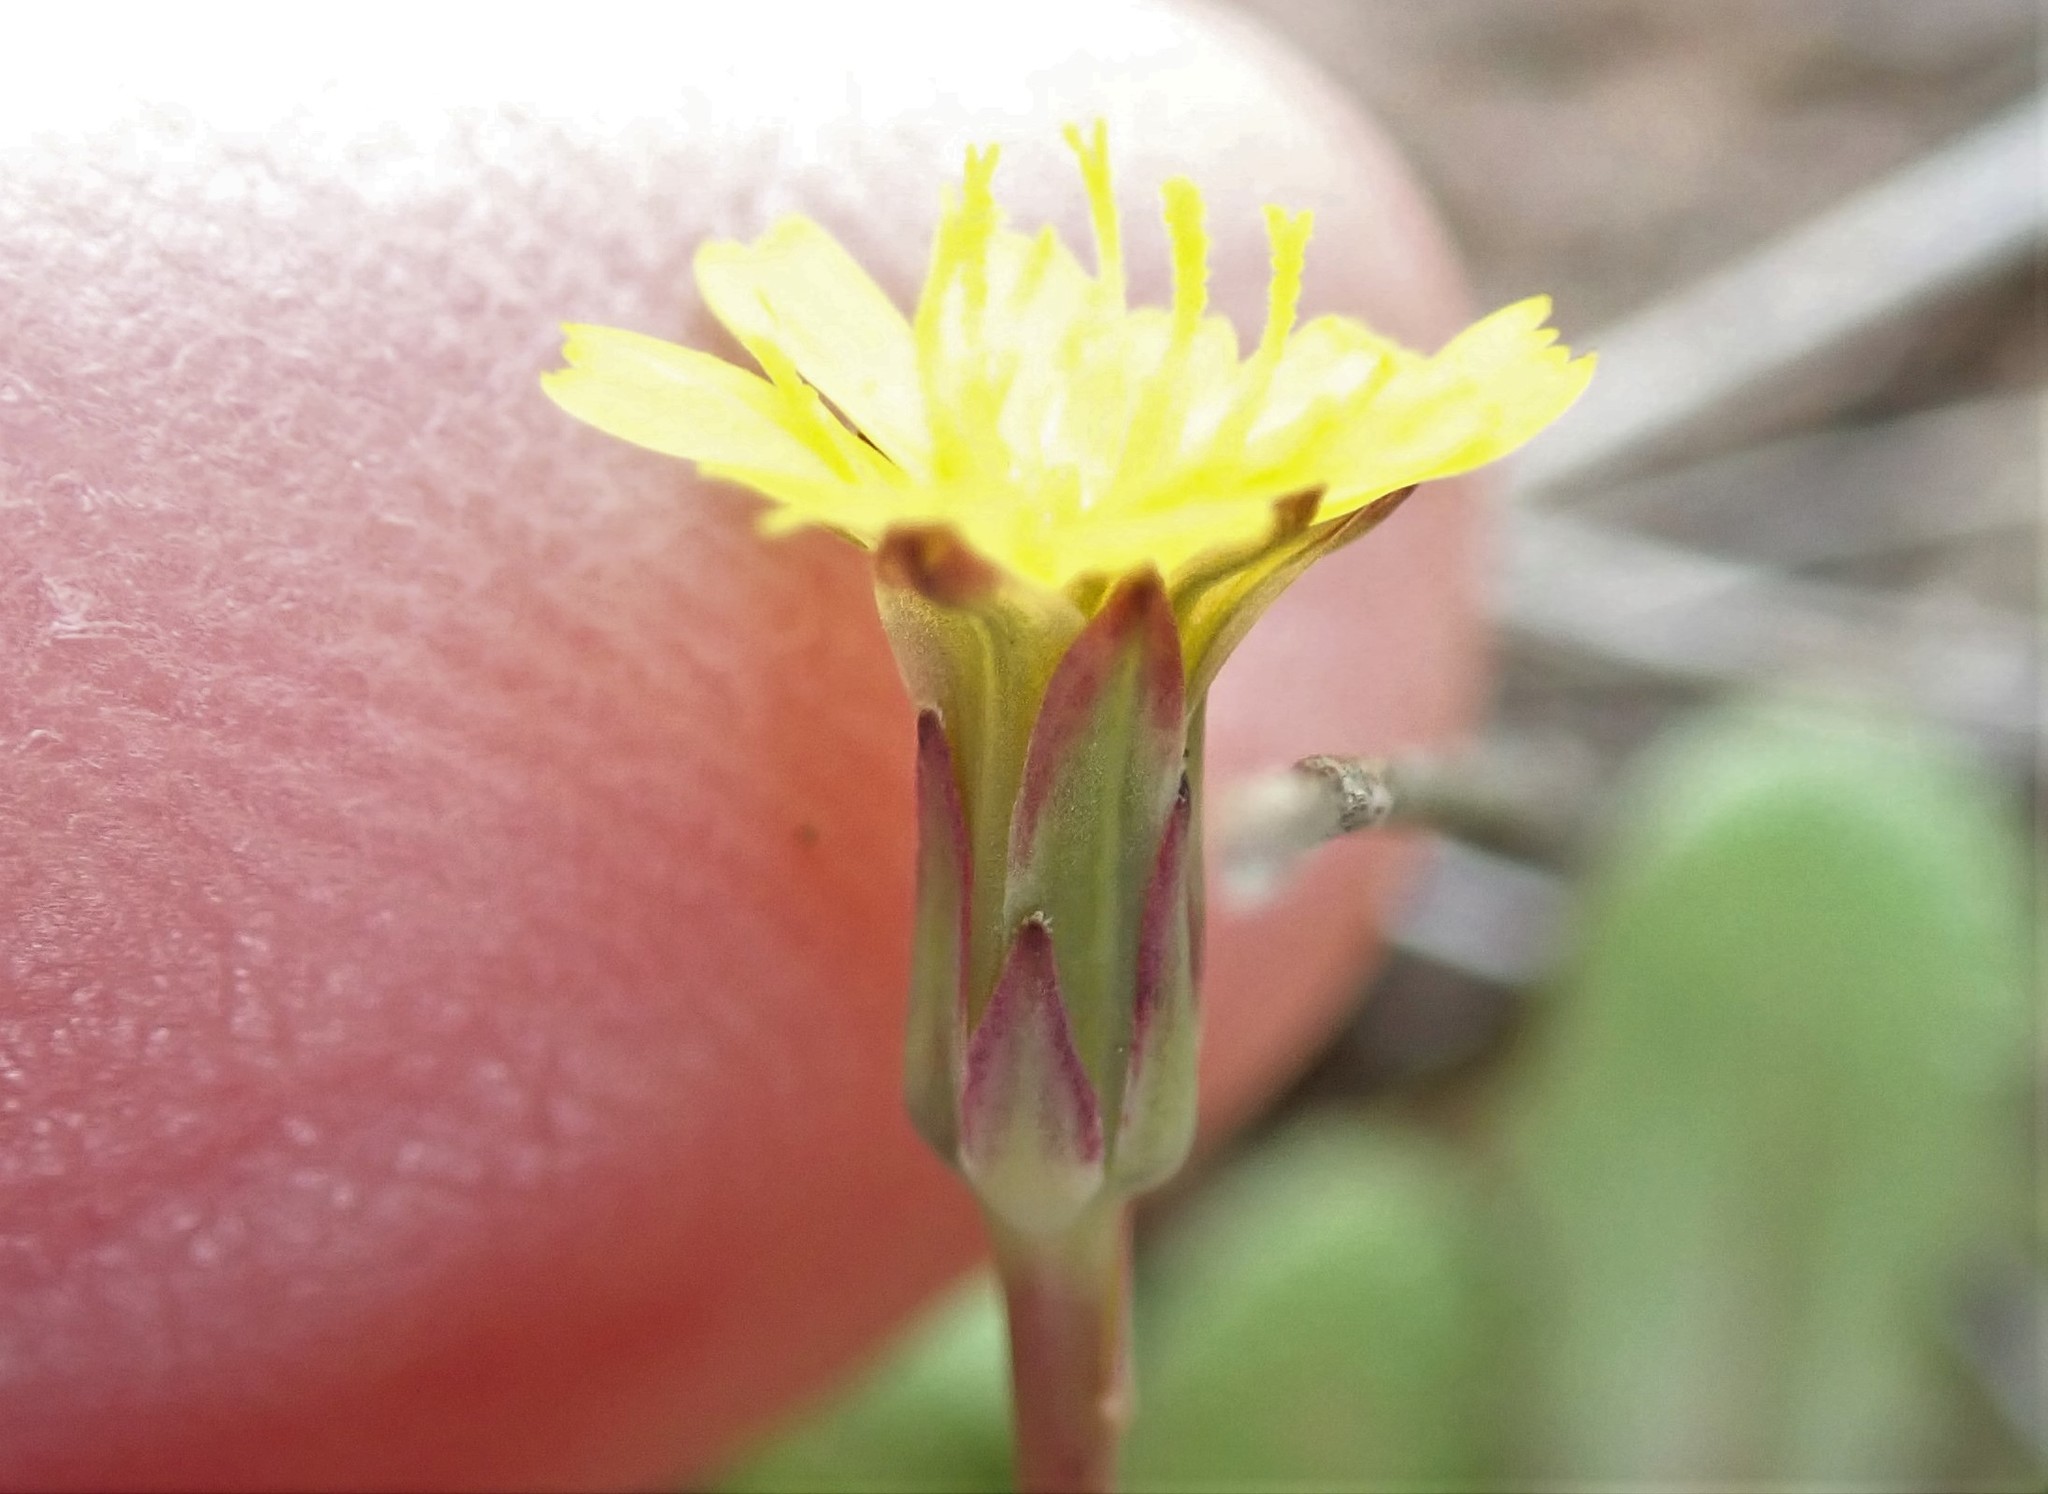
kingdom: Plantae
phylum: Tracheophyta
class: Magnoliopsida
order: Asterales
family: Asteraceae
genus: Hypochaeris
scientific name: Hypochaeris glabra
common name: Smooth catsear
